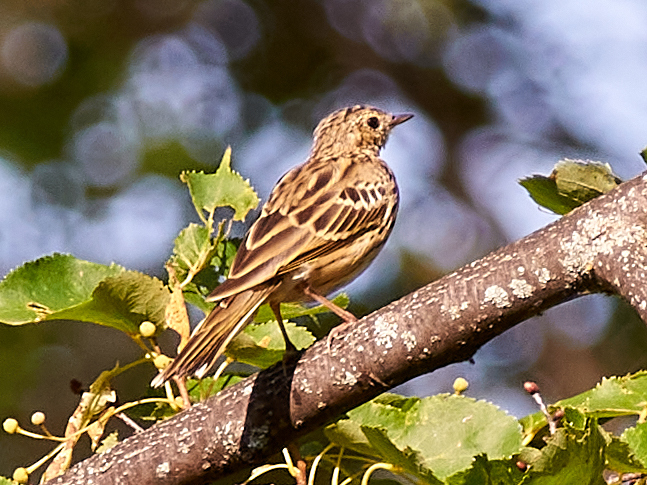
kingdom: Animalia
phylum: Chordata
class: Aves
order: Passeriformes
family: Motacillidae
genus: Anthus
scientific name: Anthus trivialis
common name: Tree pipit
